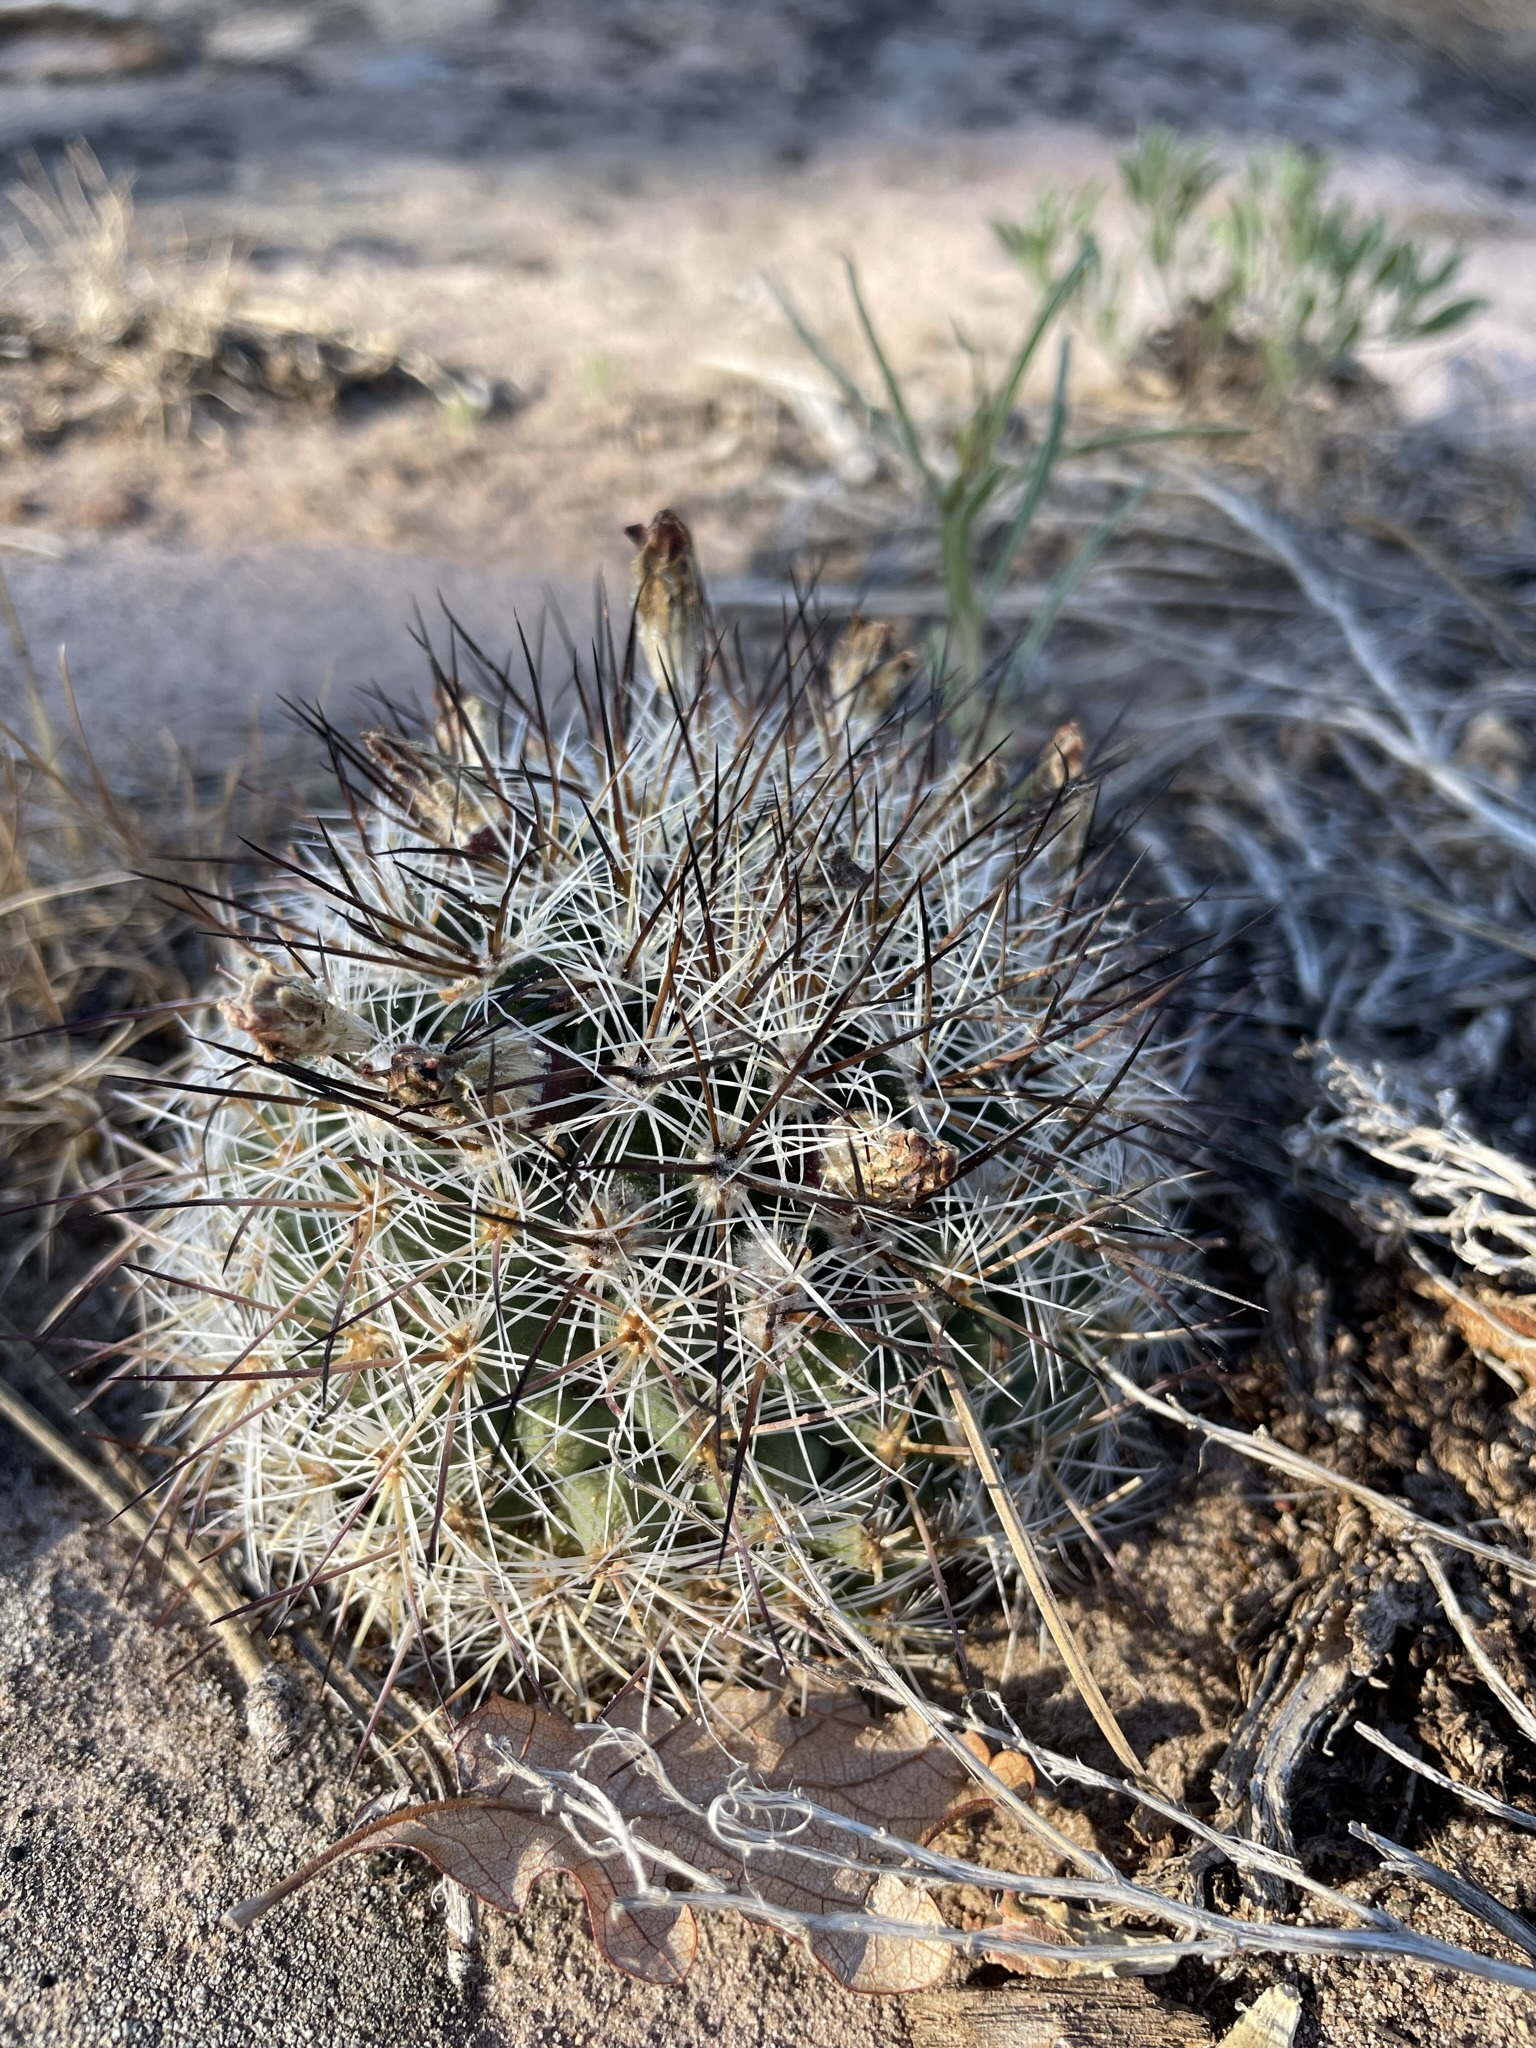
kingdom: Plantae
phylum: Tracheophyta
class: Magnoliopsida
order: Caryophyllales
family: Cactaceae
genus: Pediocactus
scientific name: Pediocactus simpsonii
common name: Simpson's hedgehog cactus
